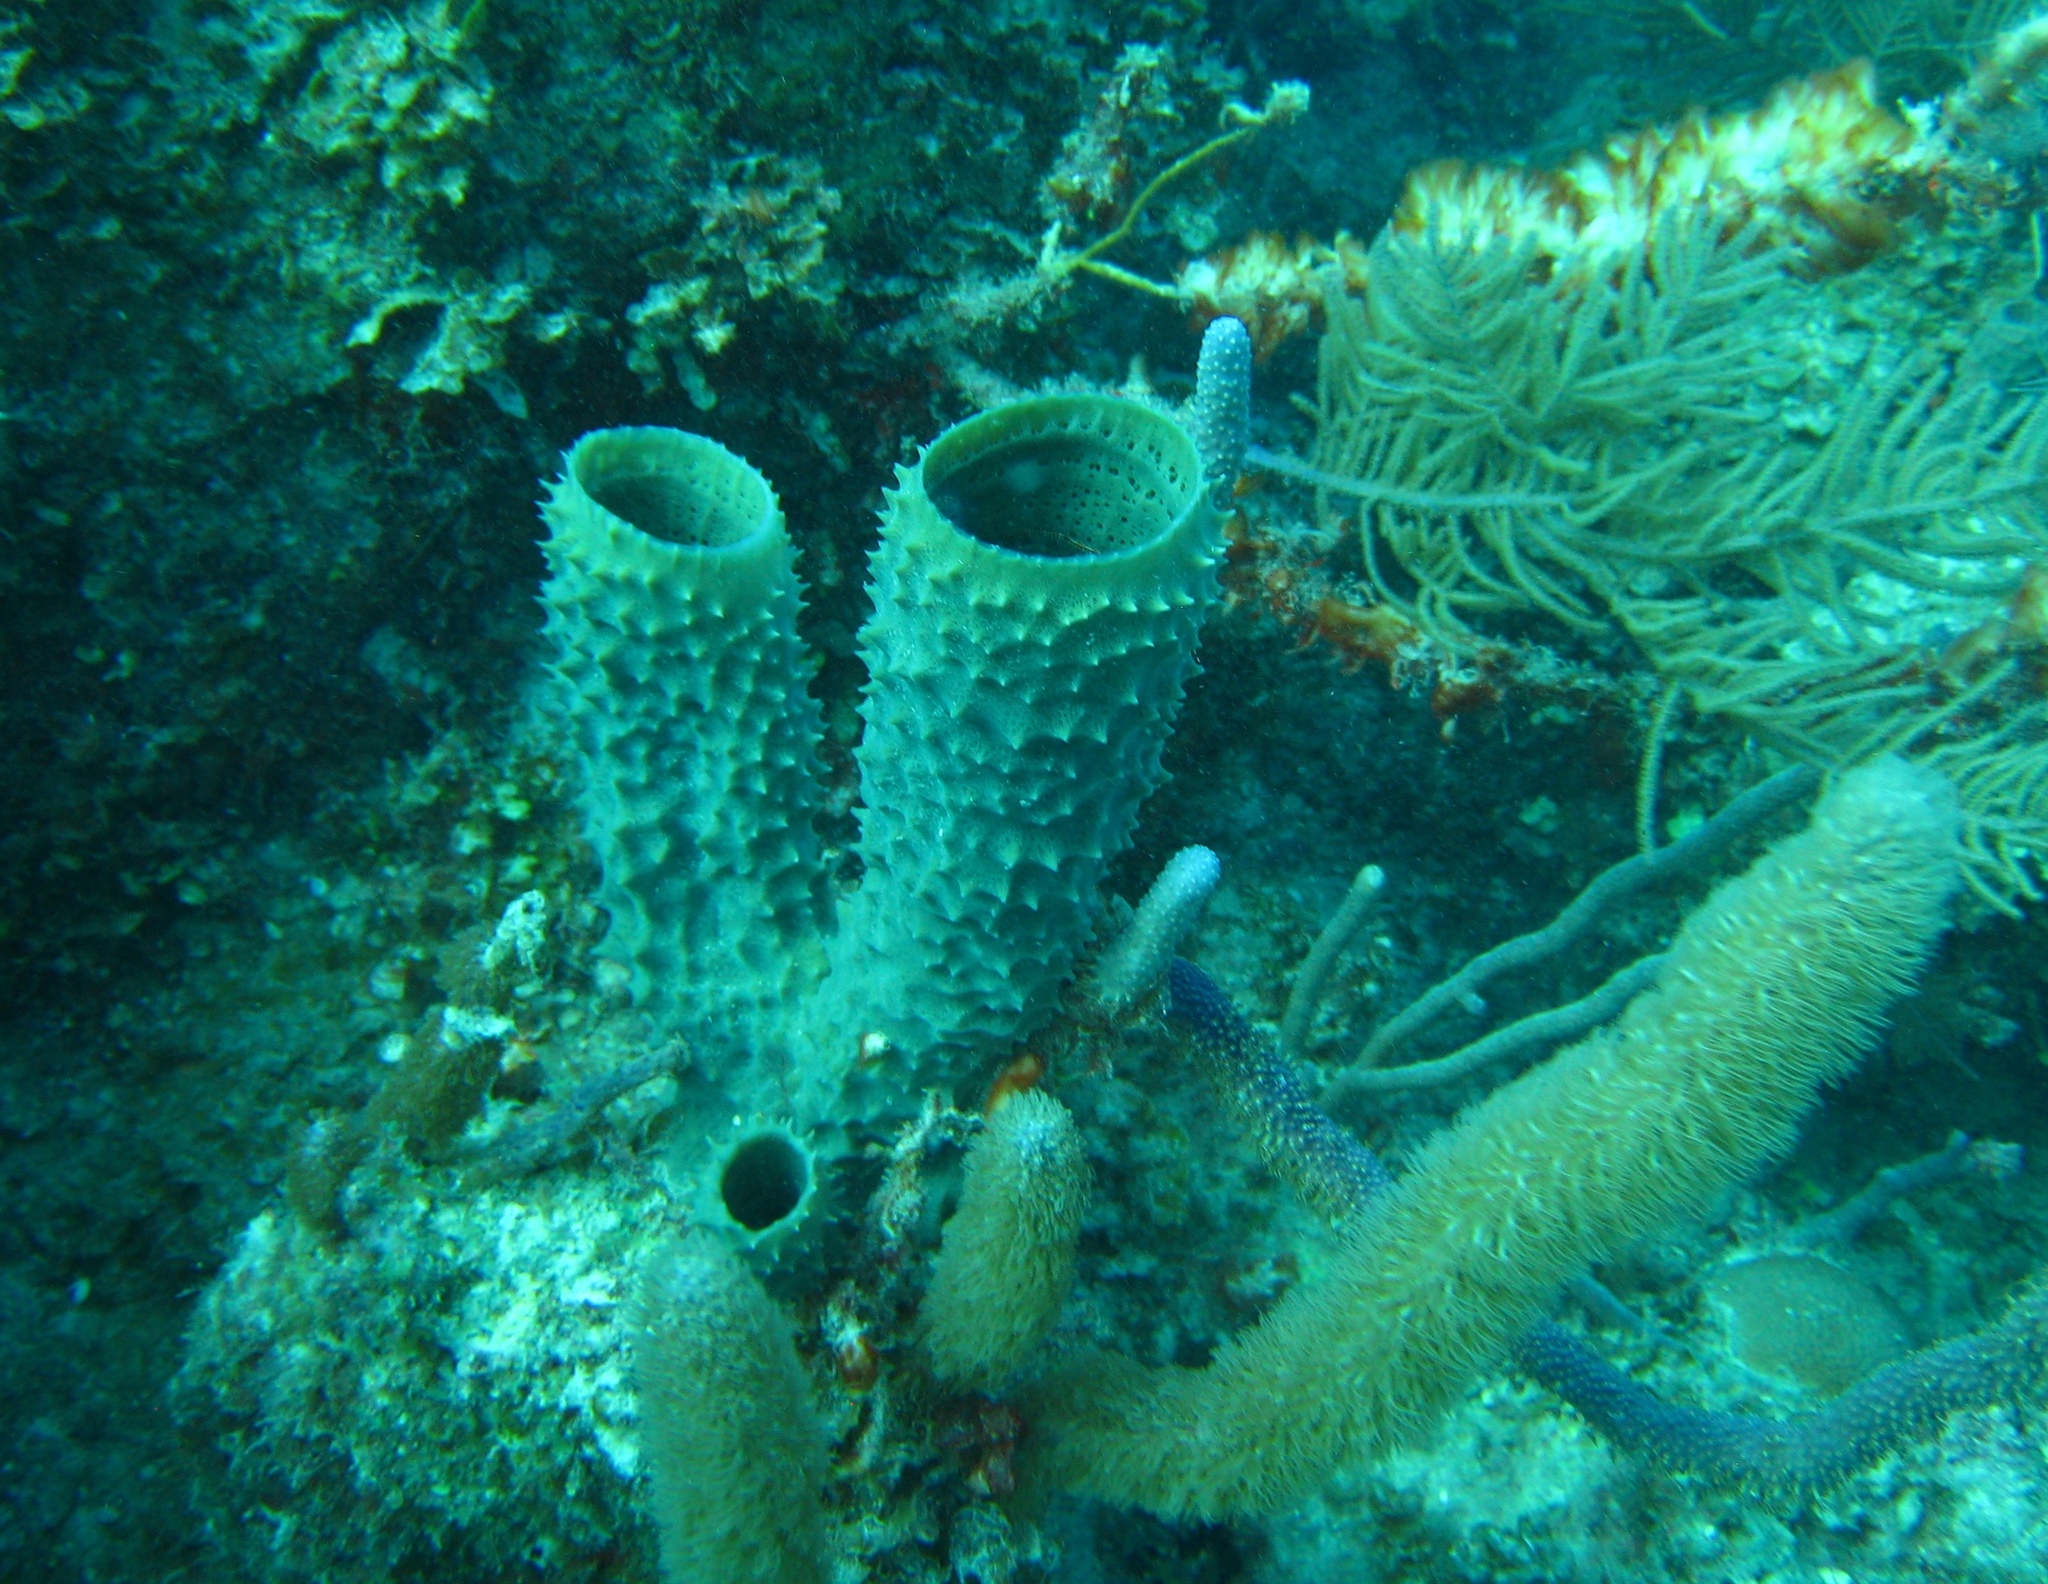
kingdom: Animalia
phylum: Porifera
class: Demospongiae
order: Haplosclerida
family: Callyspongiidae
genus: Callyspongia
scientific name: Callyspongia aculeata
